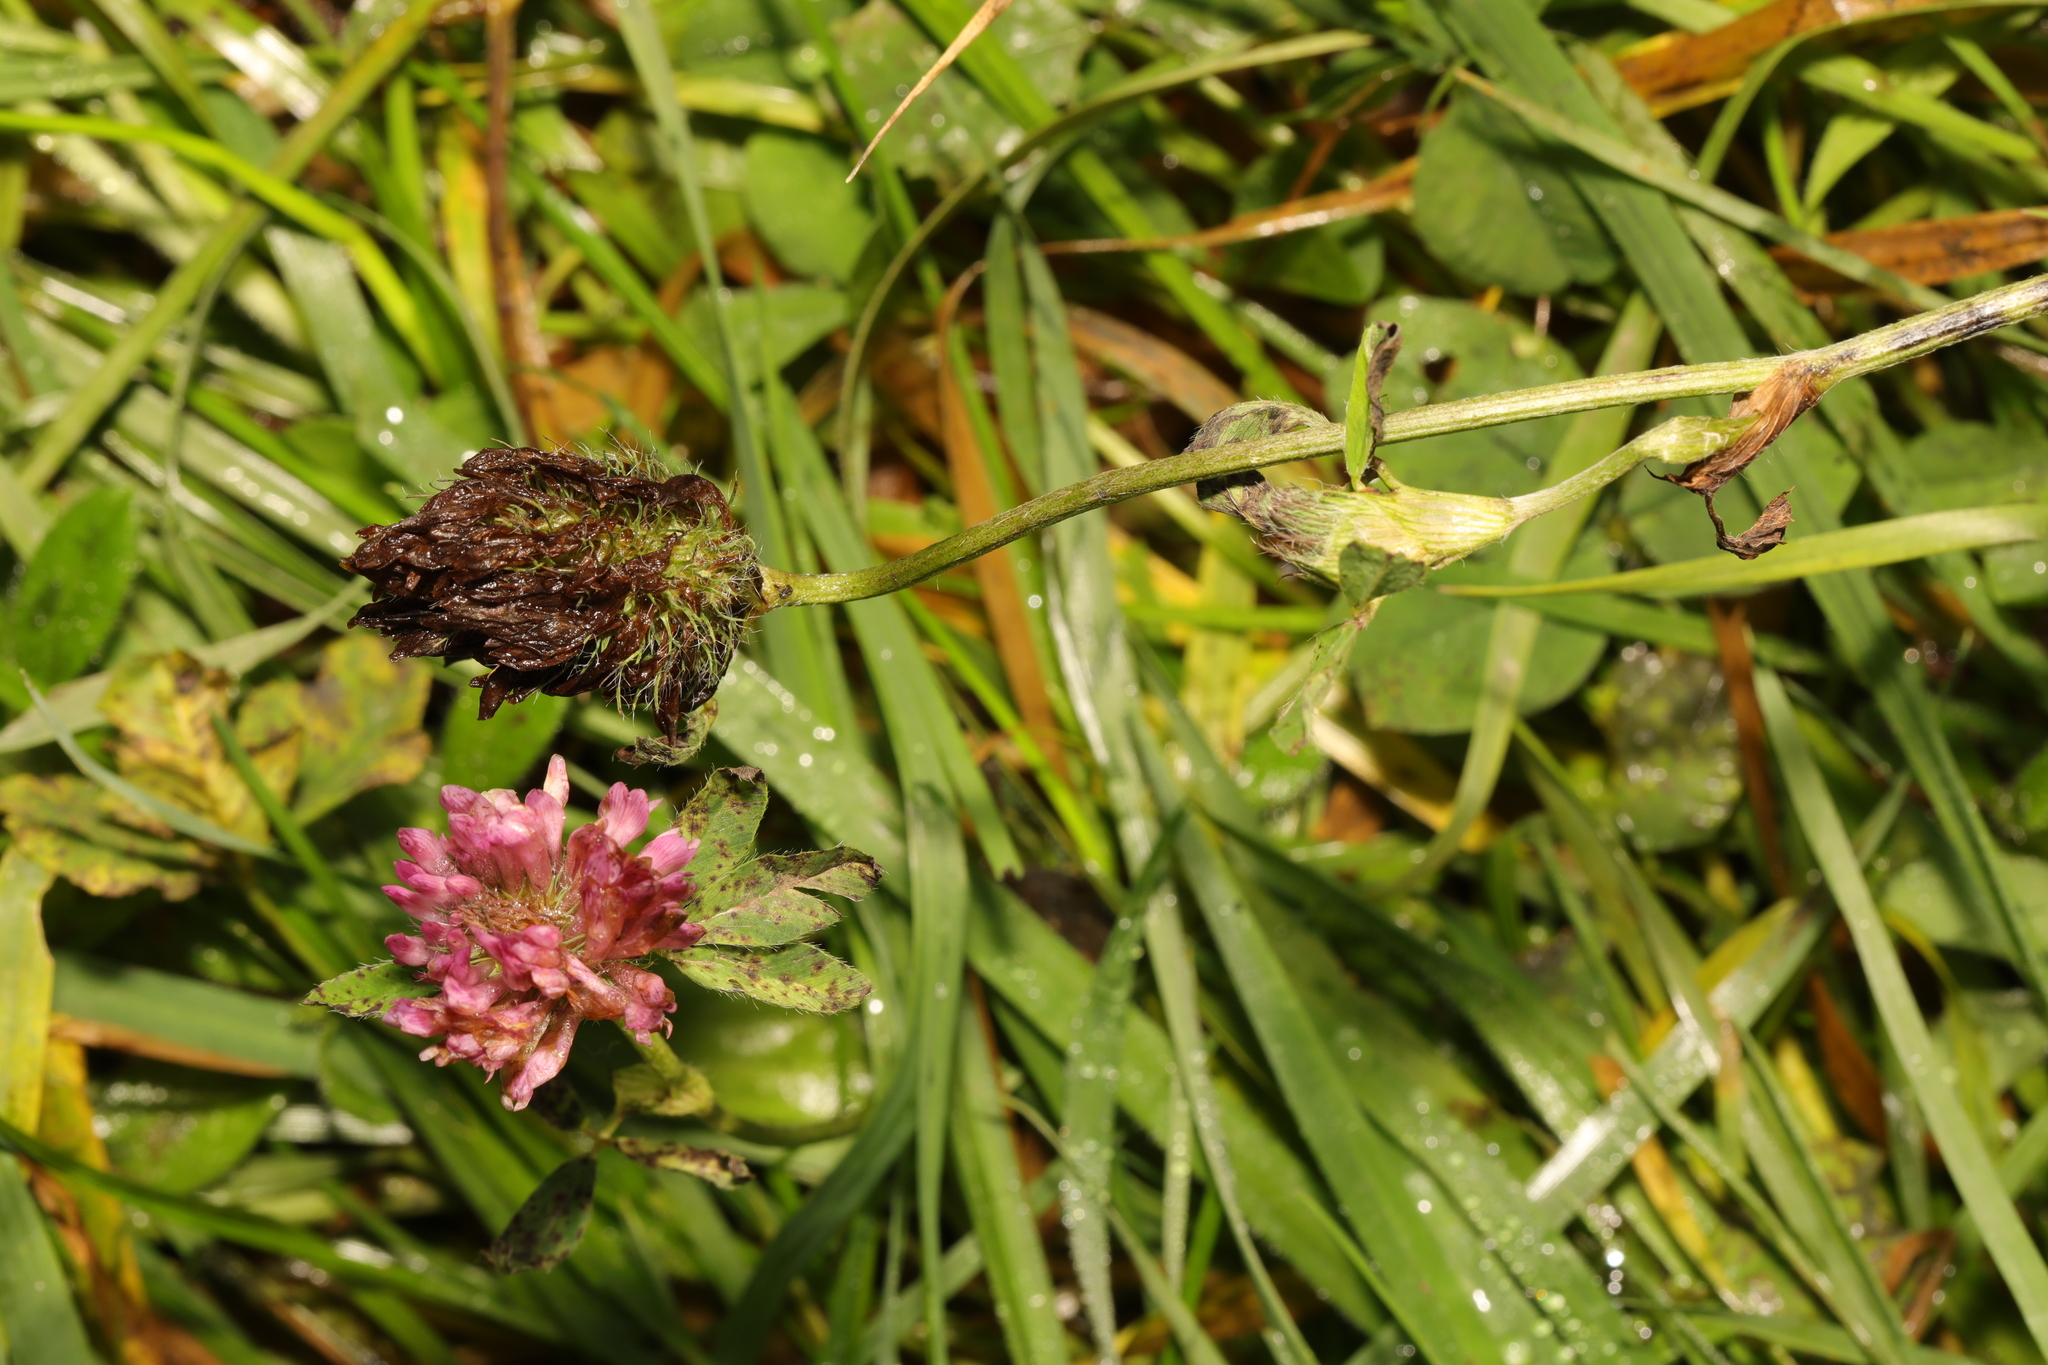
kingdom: Plantae
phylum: Tracheophyta
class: Magnoliopsida
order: Fabales
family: Fabaceae
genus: Trifolium
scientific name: Trifolium pratense
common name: Red clover
